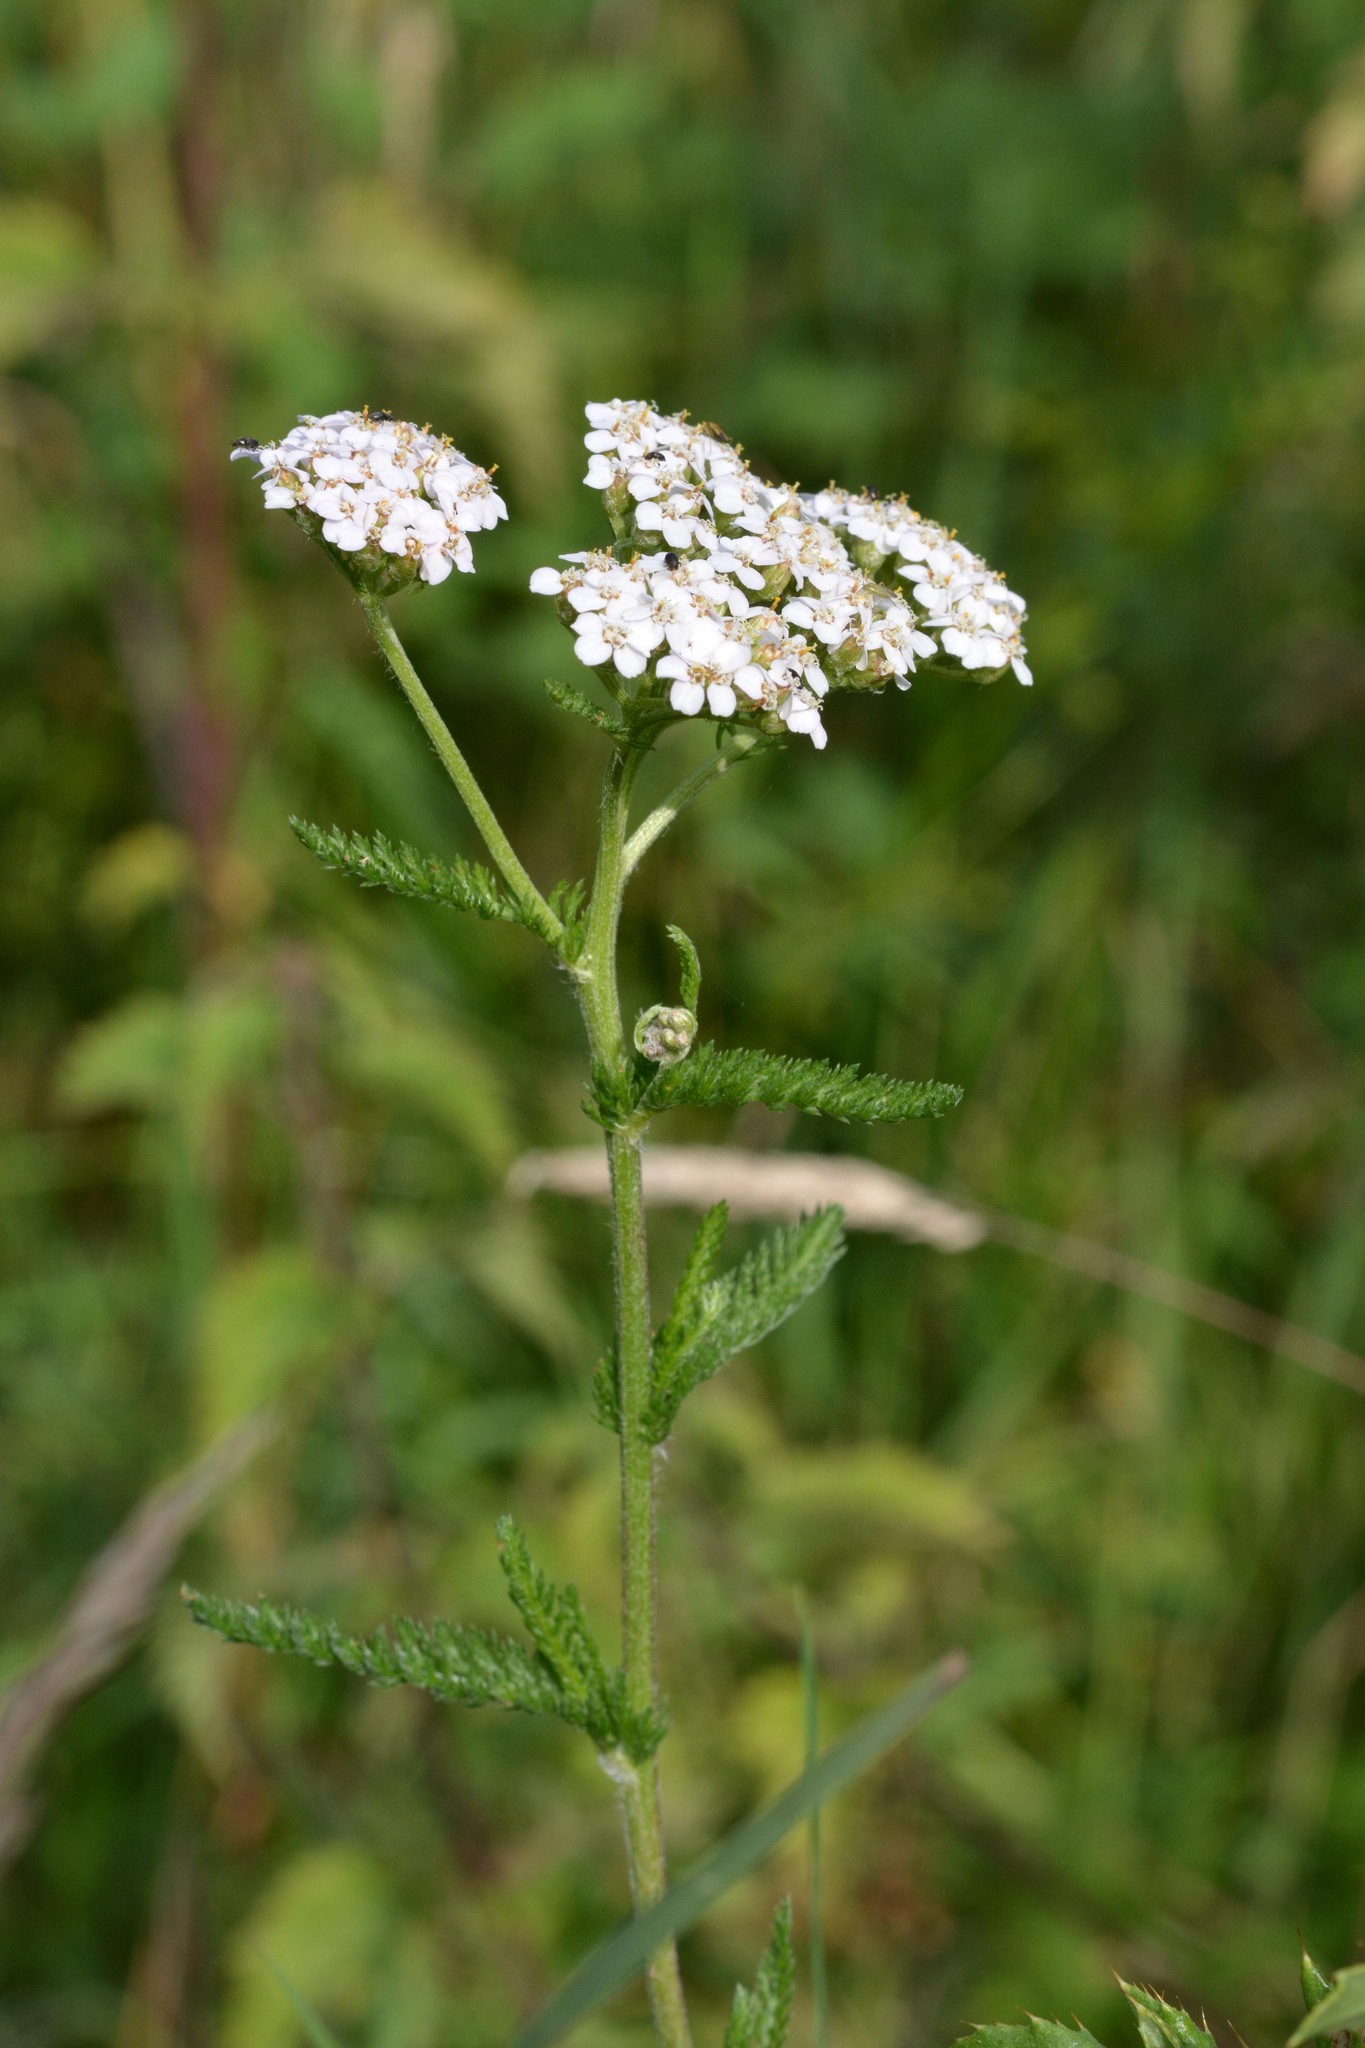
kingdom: Plantae
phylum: Tracheophyta
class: Magnoliopsida
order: Asterales
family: Asteraceae
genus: Achillea
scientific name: Achillea millefolium
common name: Yarrow
